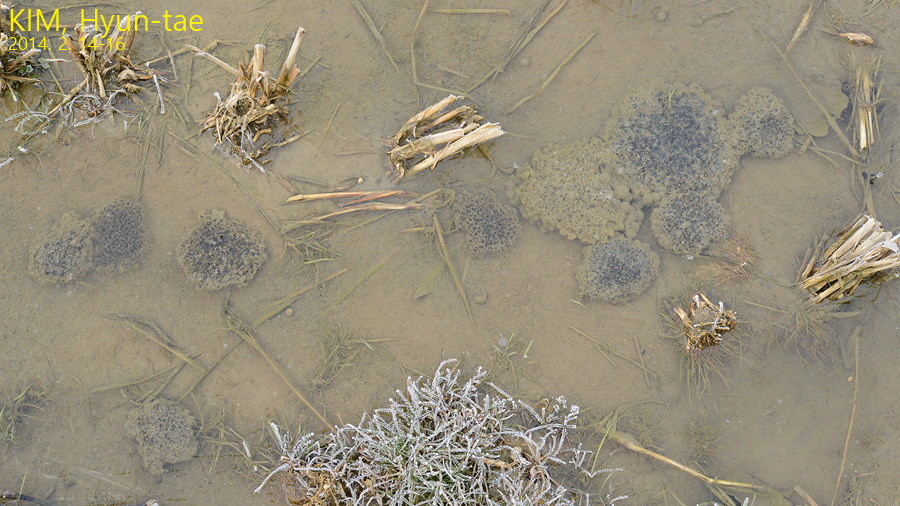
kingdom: Animalia
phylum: Chordata
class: Amphibia
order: Anura
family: Ranidae
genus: Rana
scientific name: Rana coreana
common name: Korean brown frog
